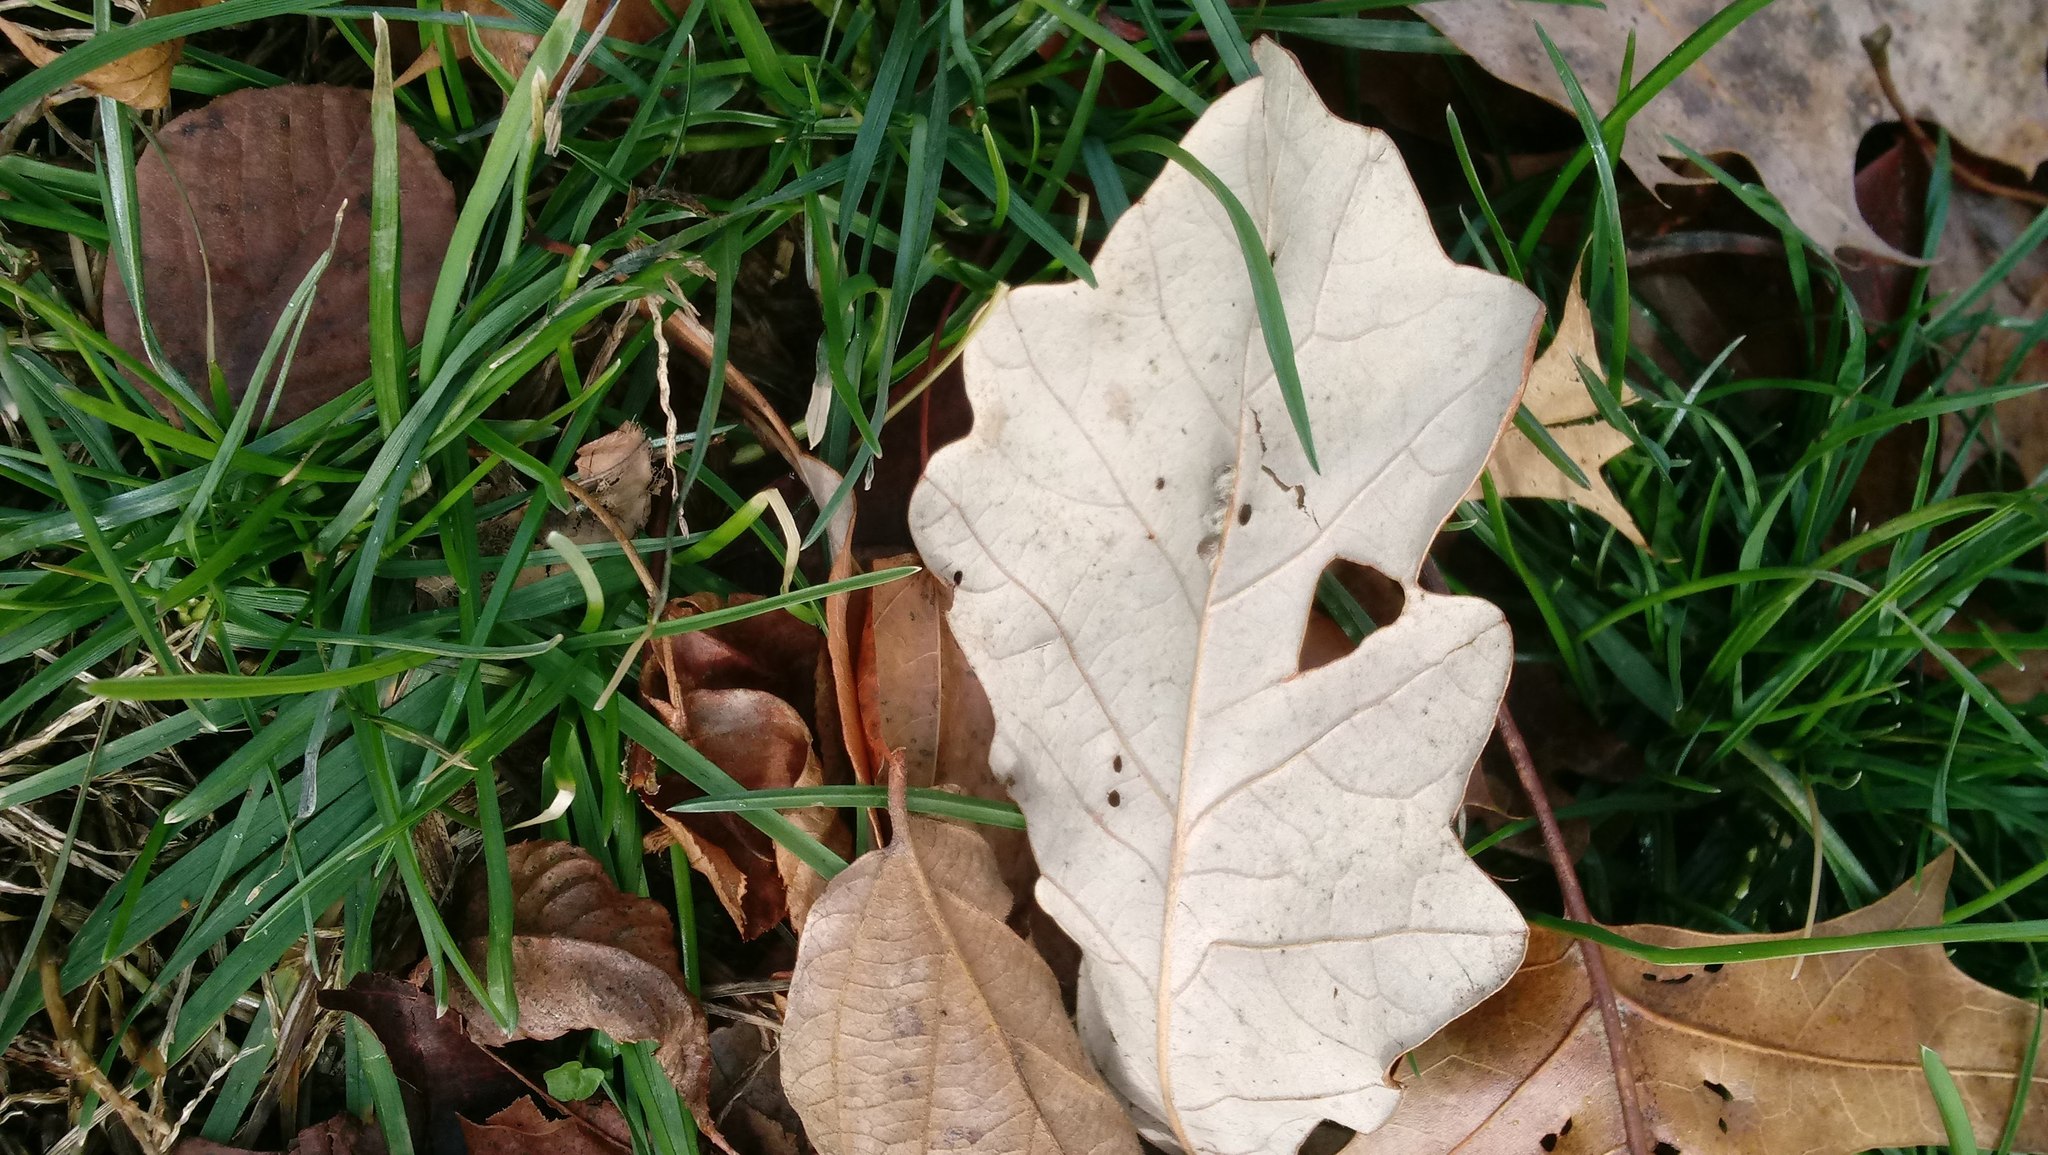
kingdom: Animalia
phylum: Arthropoda
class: Insecta
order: Hymenoptera
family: Cynipidae
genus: Andricus
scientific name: Andricus Druon ignotum
